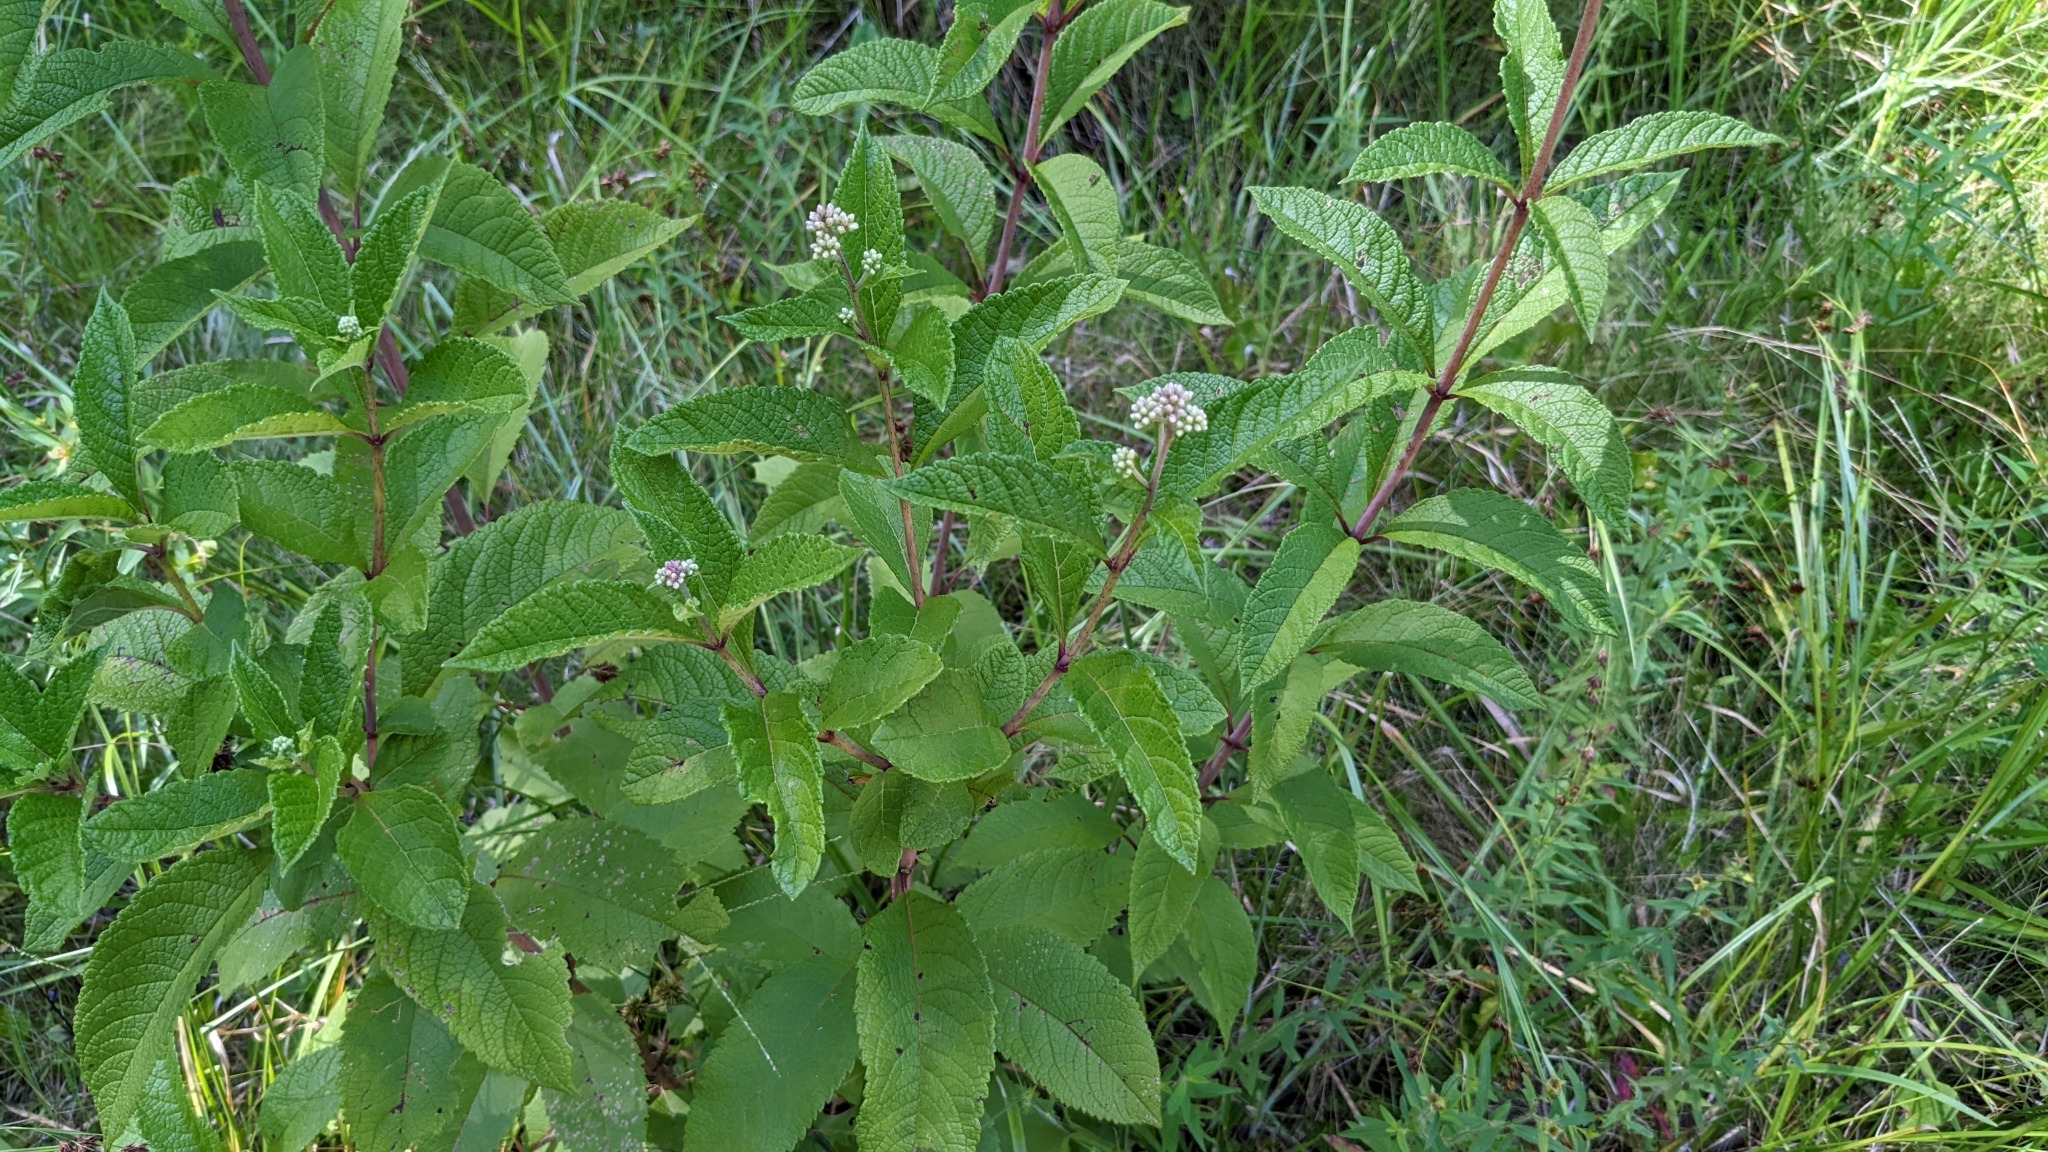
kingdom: Plantae
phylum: Tracheophyta
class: Magnoliopsida
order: Asterales
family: Asteraceae
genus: Eutrochium
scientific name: Eutrochium fistulosum
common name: Trumpetweed
